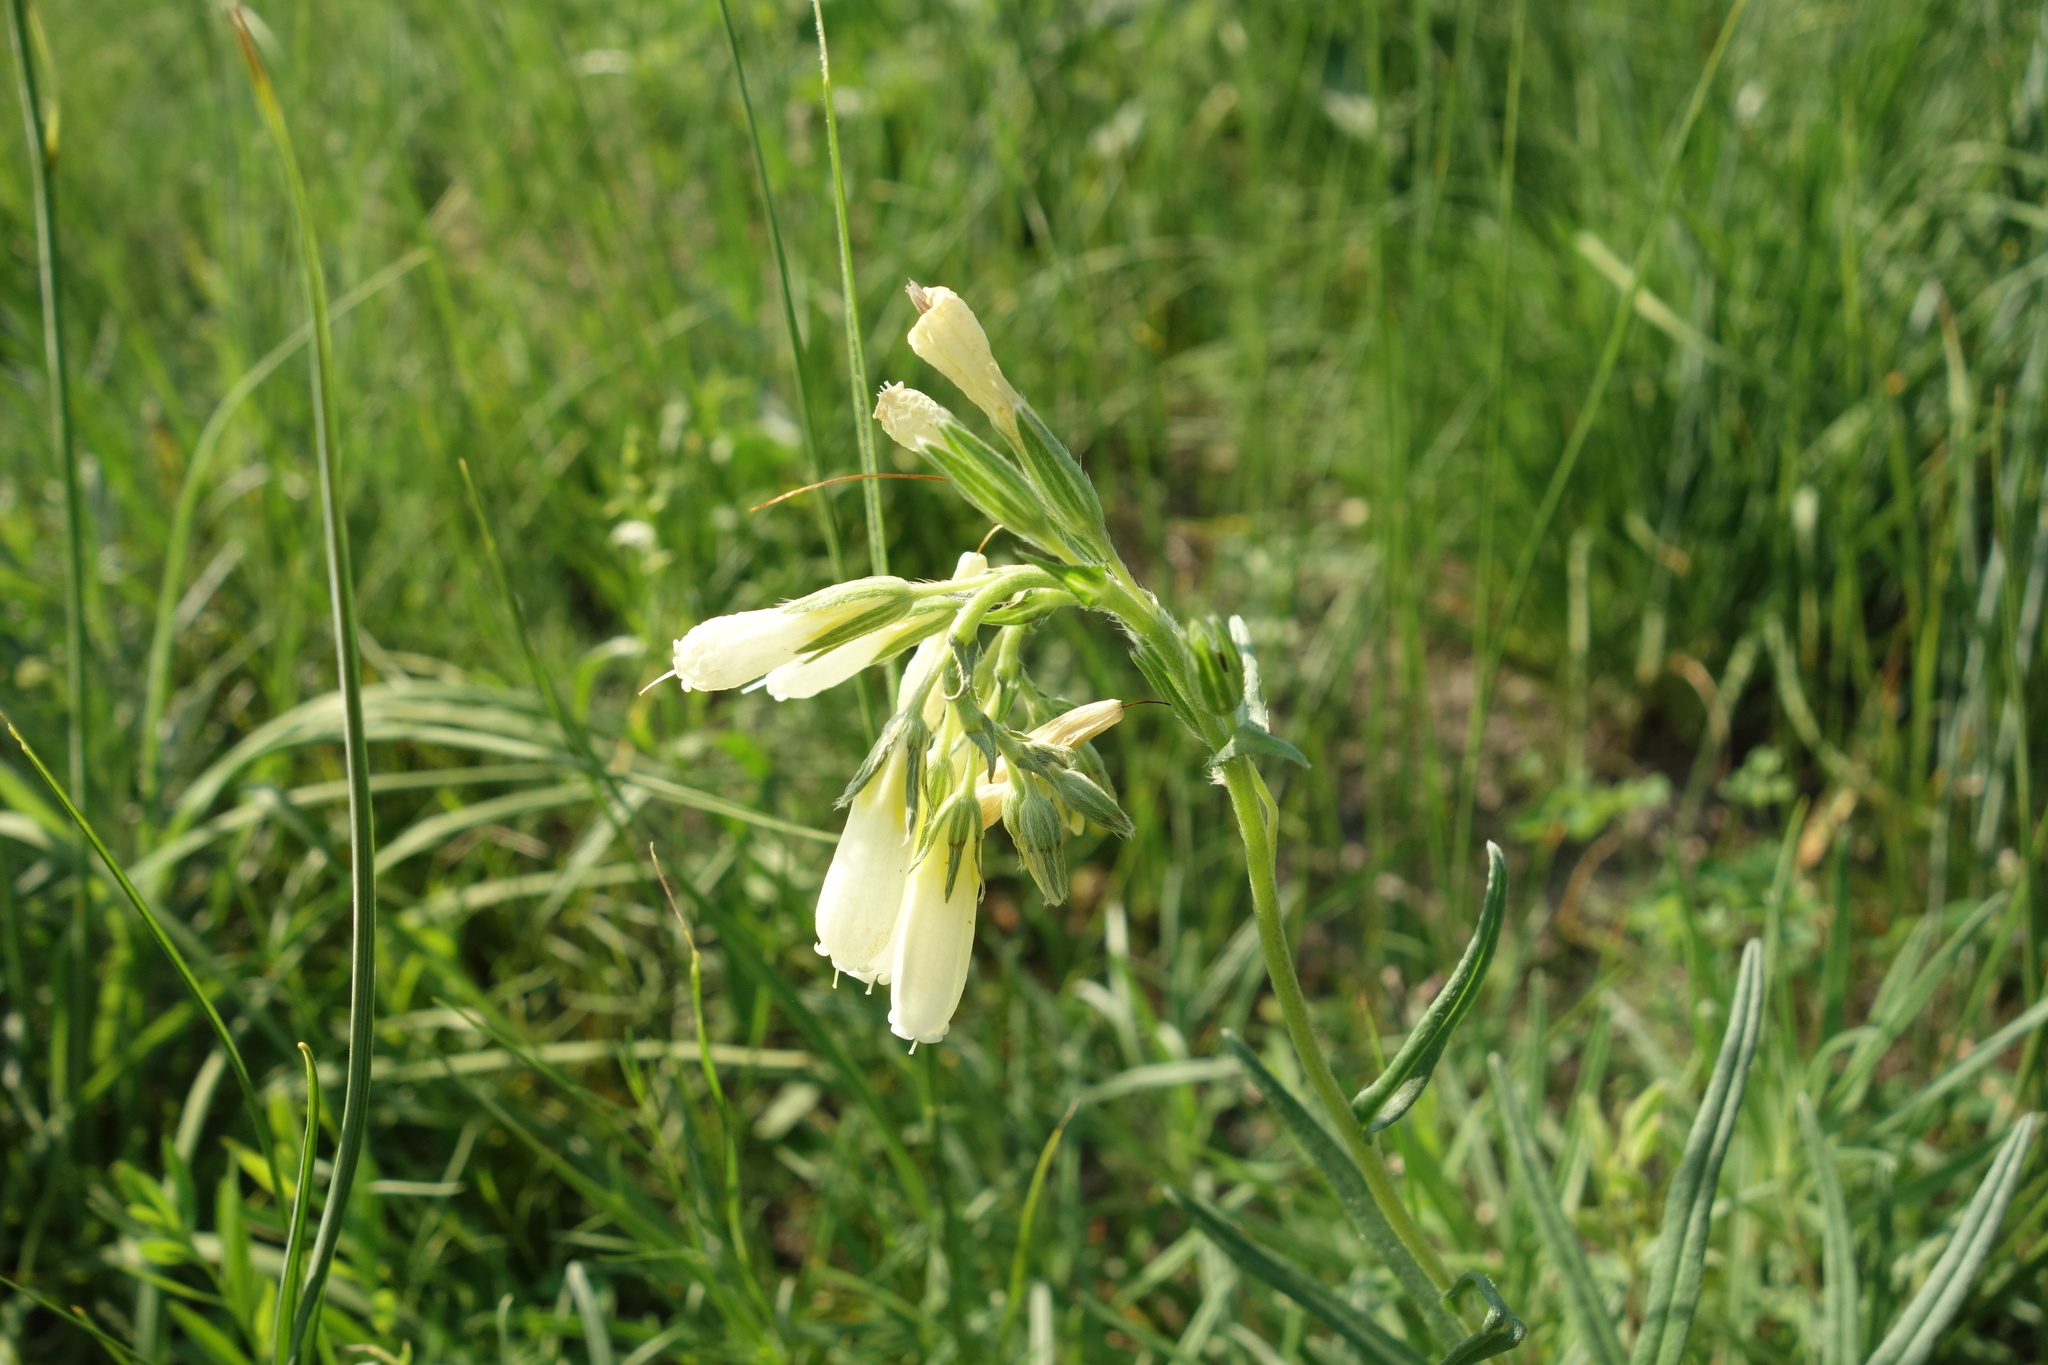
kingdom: Plantae
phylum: Tracheophyta
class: Magnoliopsida
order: Boraginales
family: Boraginaceae
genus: Onosma
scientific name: Onosma simplicissima
